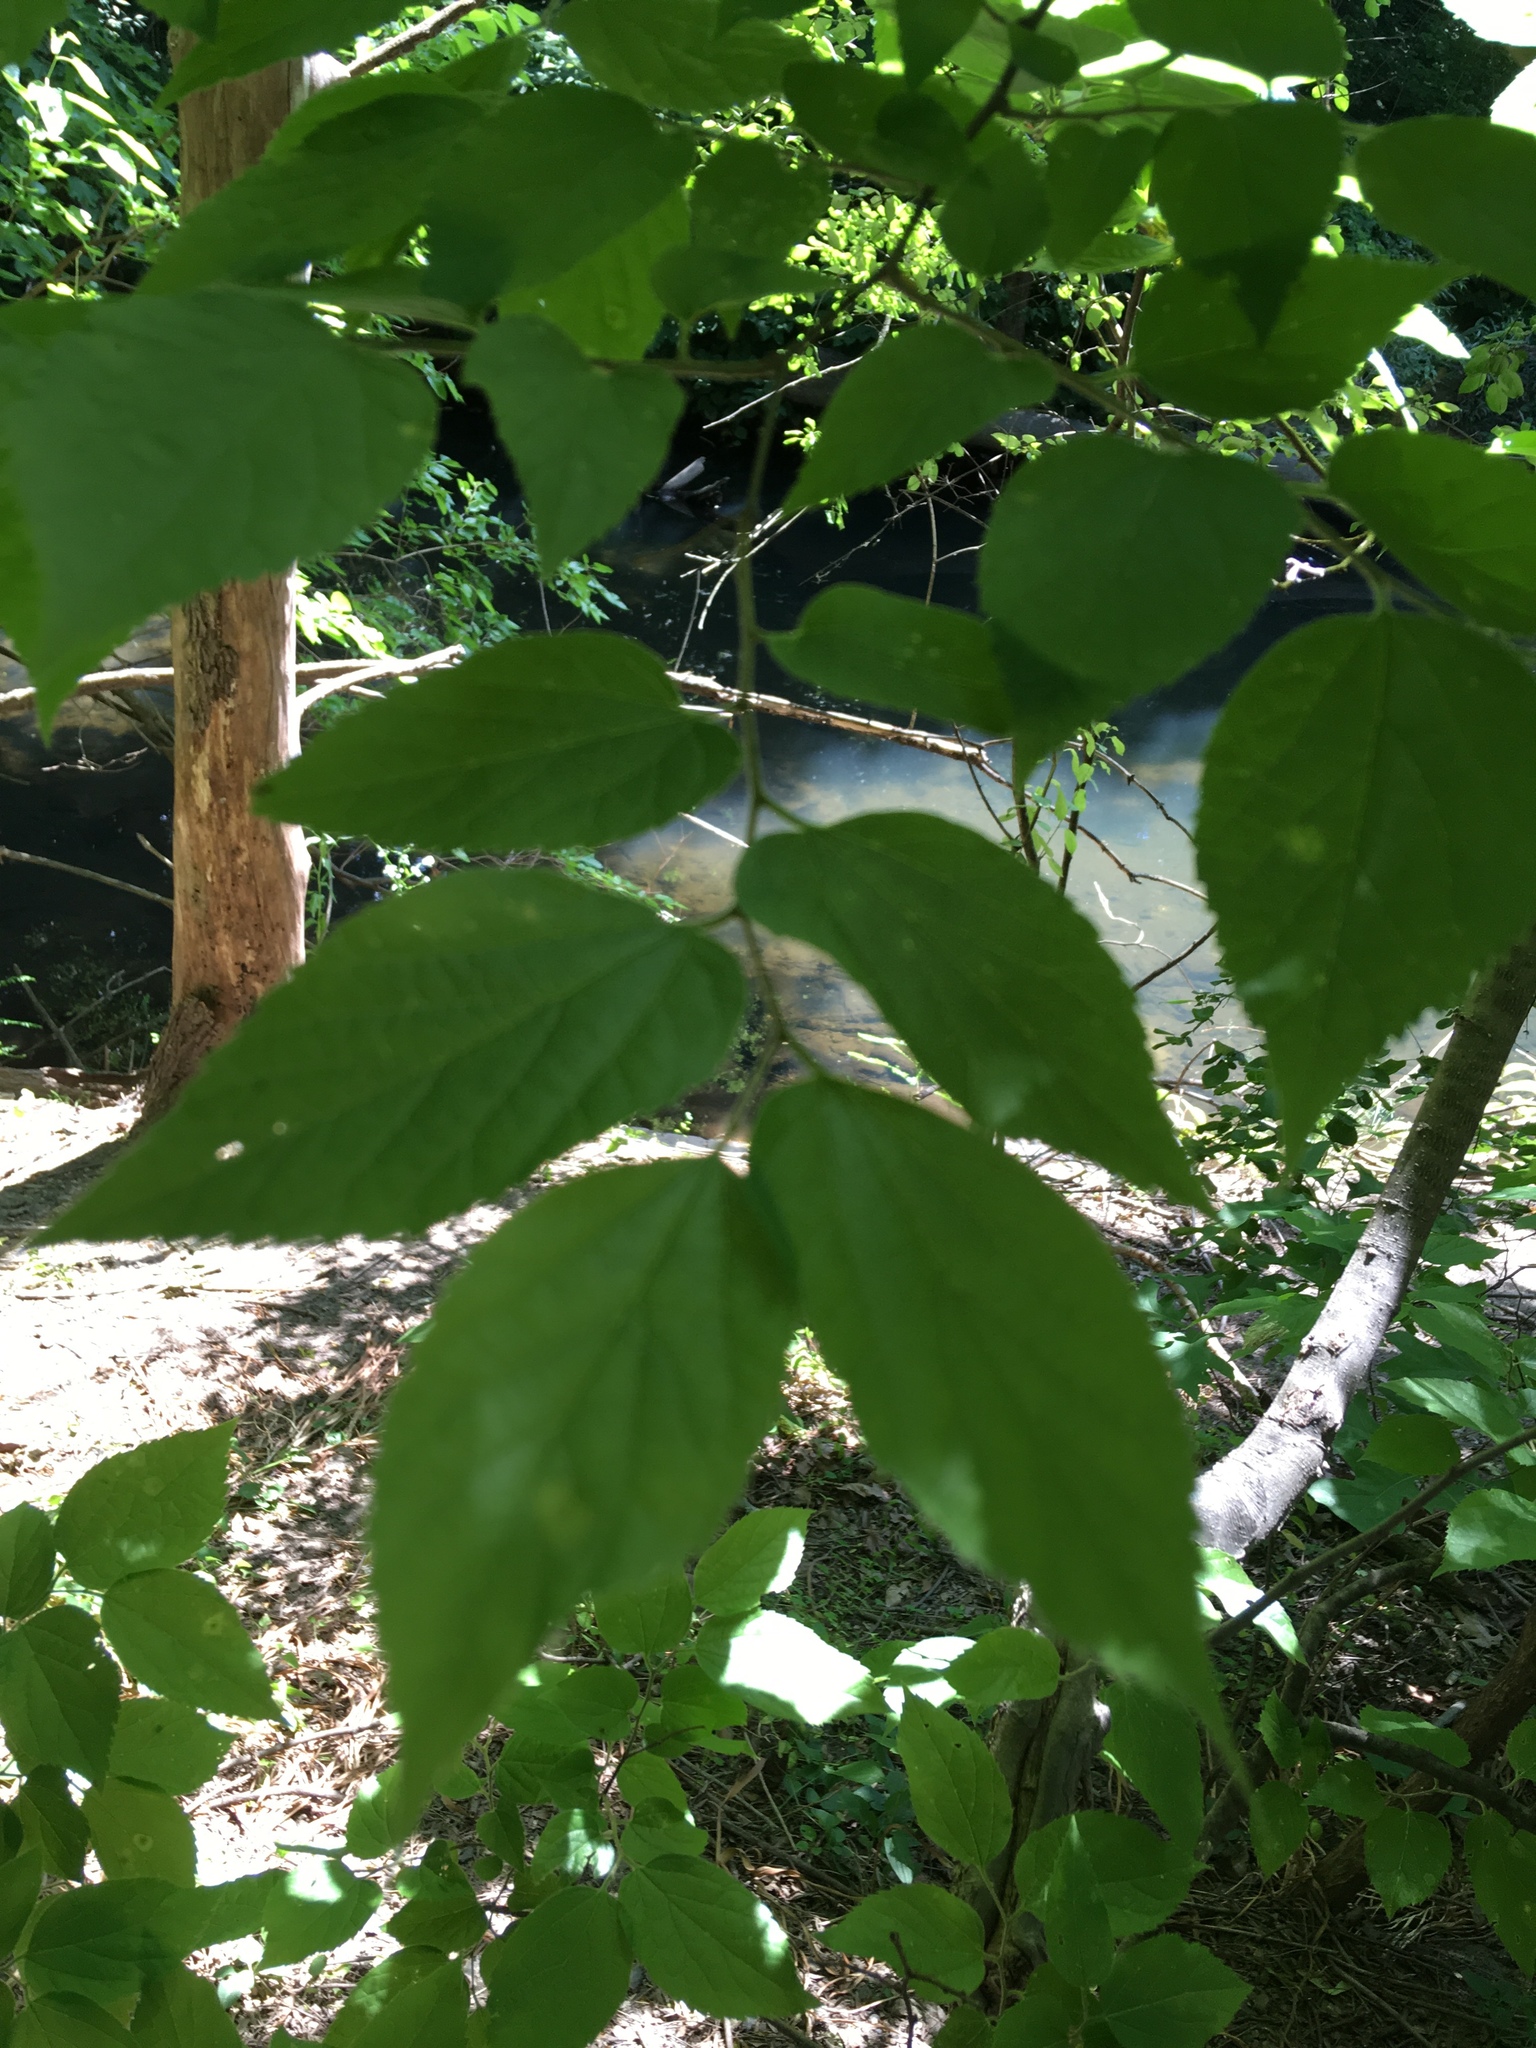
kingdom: Plantae
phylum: Tracheophyta
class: Magnoliopsida
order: Rosales
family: Cannabaceae
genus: Celtis
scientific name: Celtis occidentalis
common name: Common hackberry
